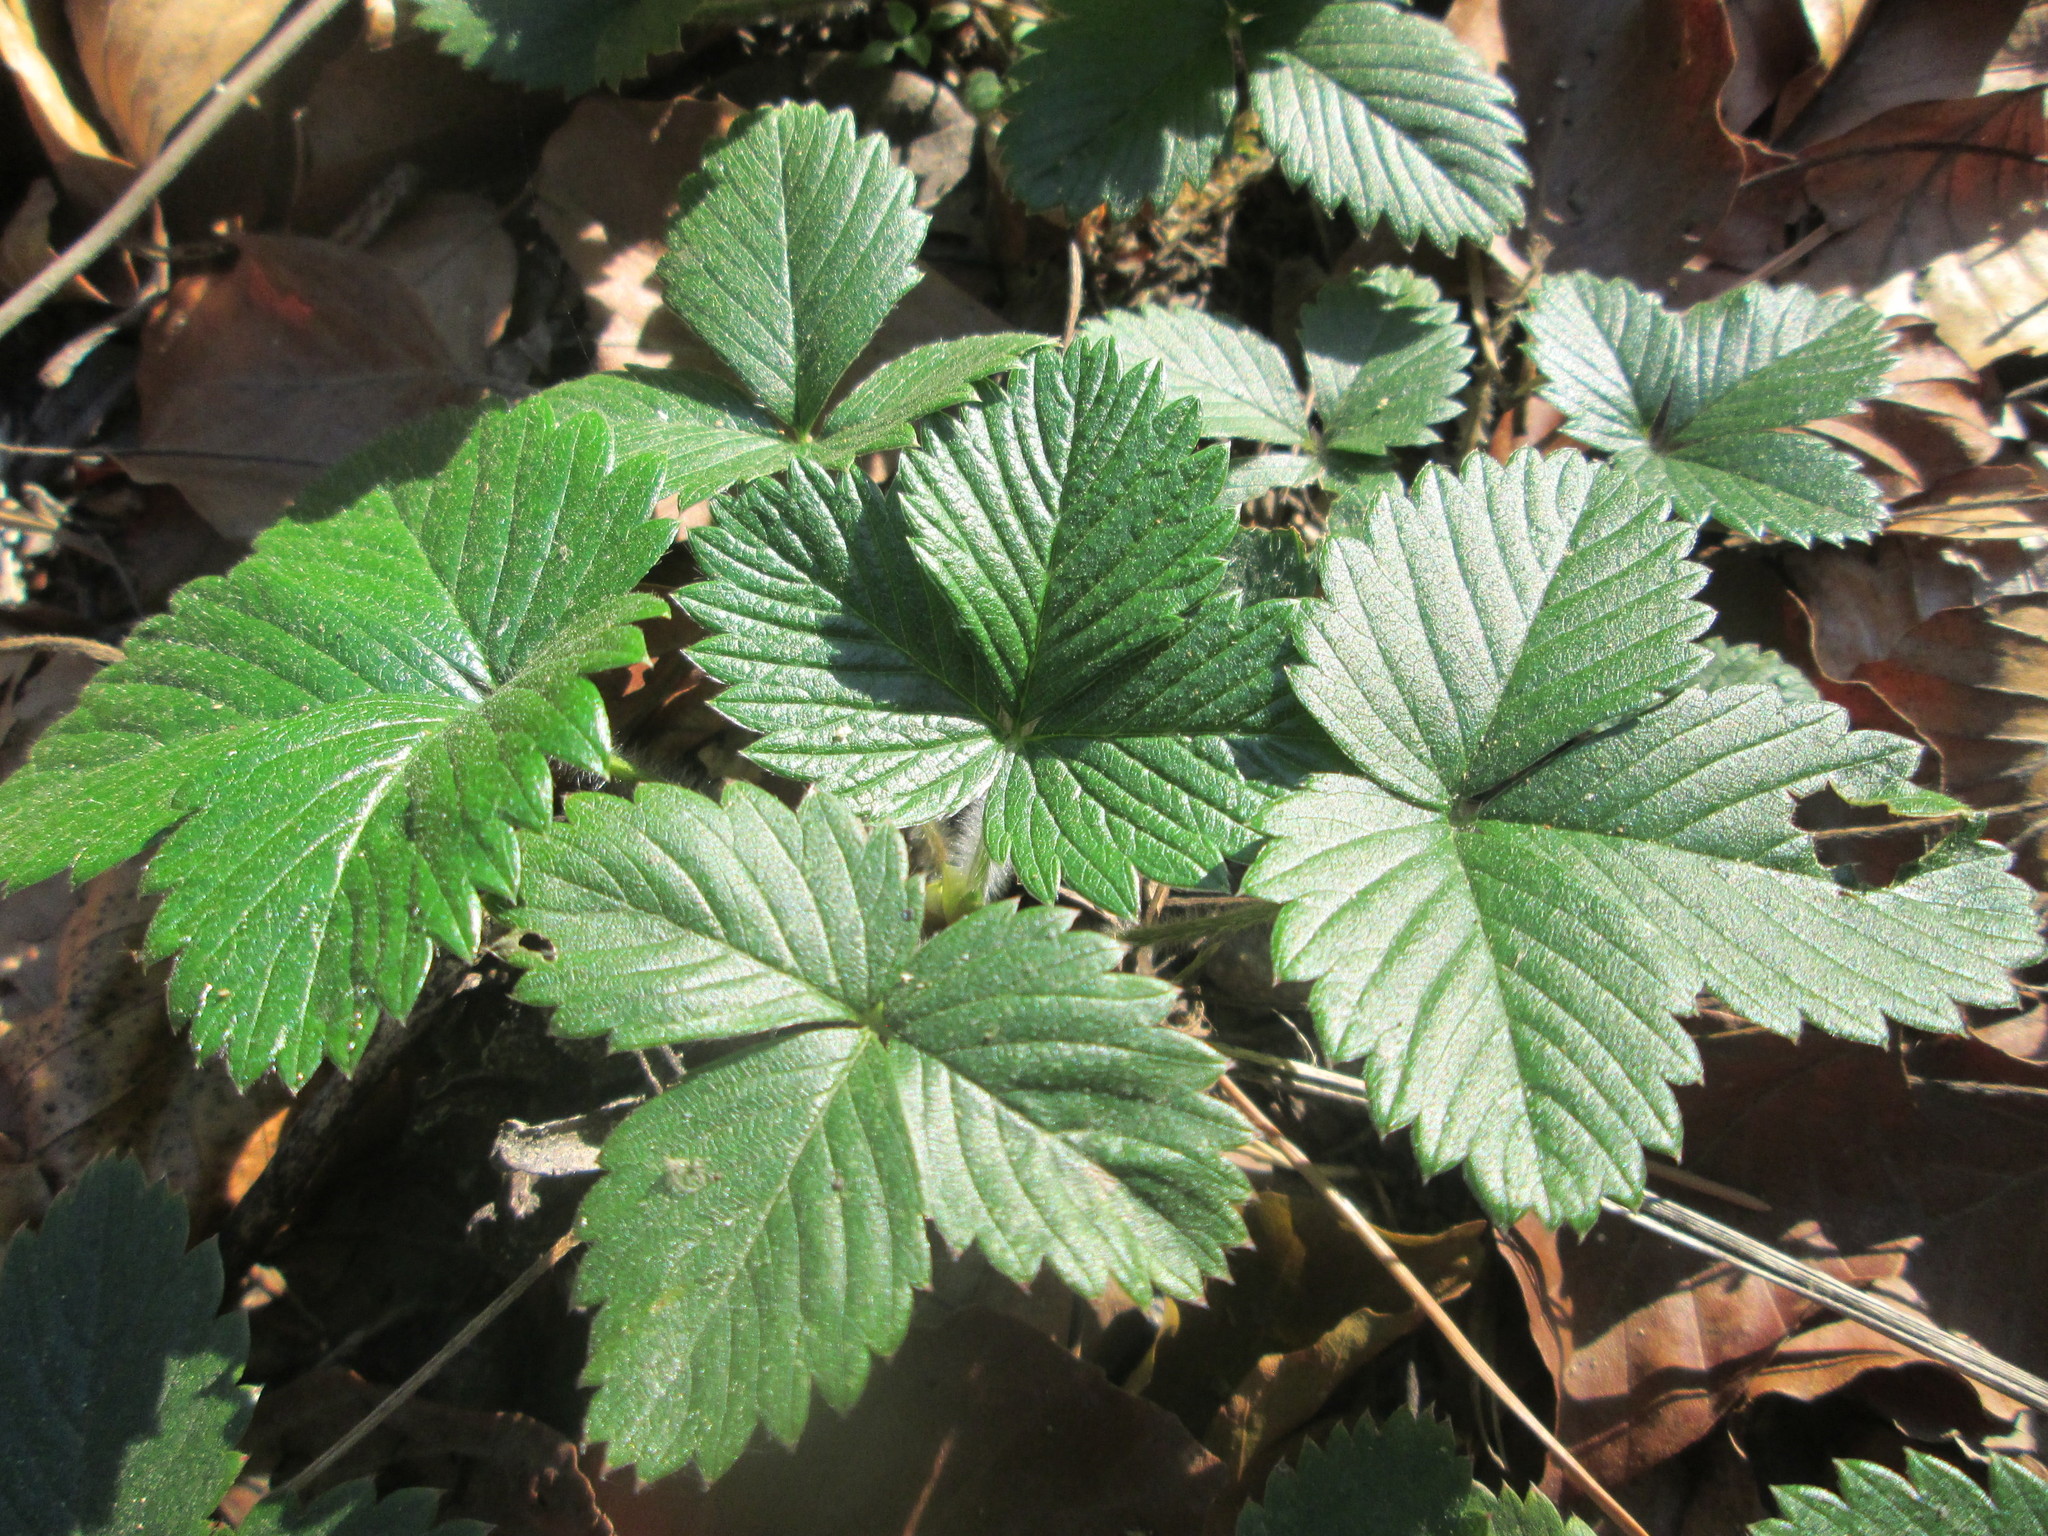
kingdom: Plantae
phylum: Tracheophyta
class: Magnoliopsida
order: Rosales
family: Rosaceae
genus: Fragaria
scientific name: Fragaria vesca
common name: Wild strawberry
